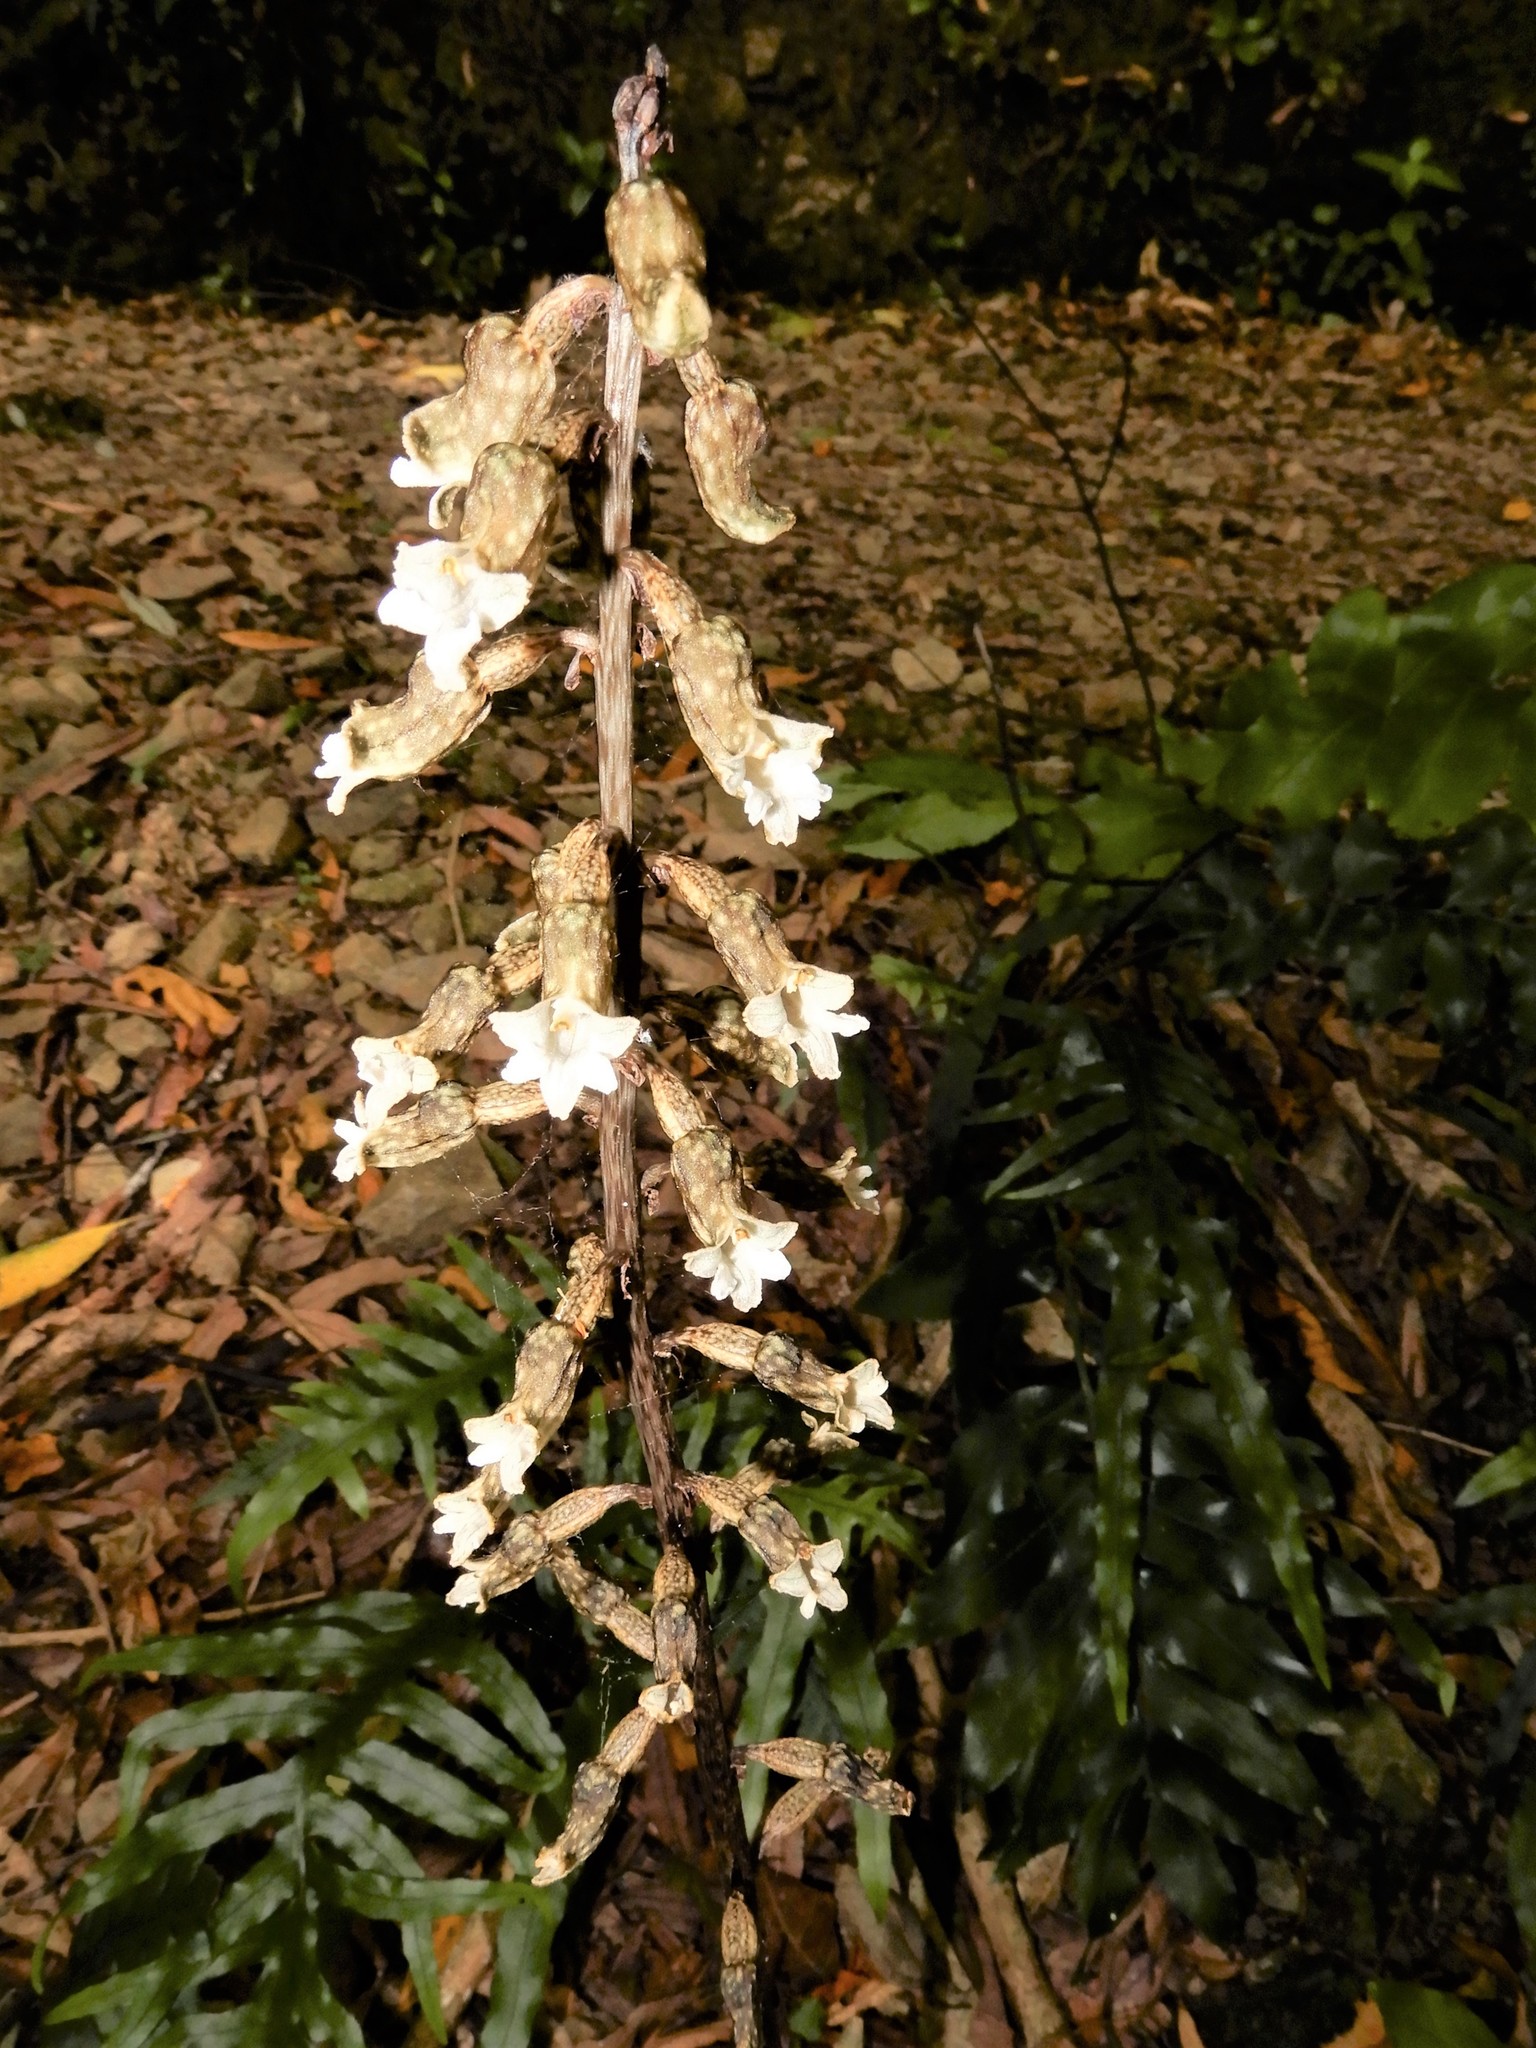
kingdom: Plantae
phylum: Tracheophyta
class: Liliopsida
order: Asparagales
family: Orchidaceae
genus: Gastrodia
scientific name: Gastrodia cunninghamii
